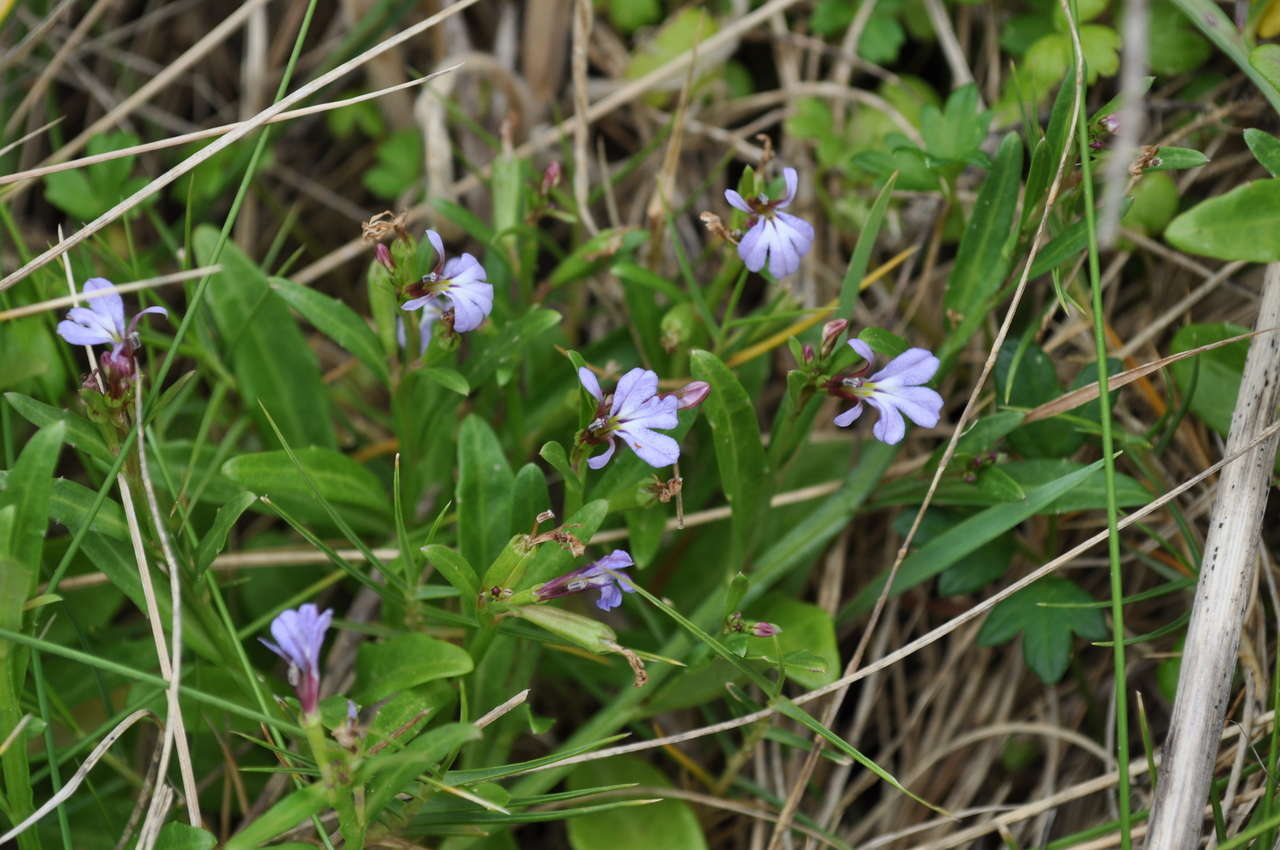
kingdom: Plantae
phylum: Tracheophyta
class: Magnoliopsida
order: Asterales
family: Campanulaceae
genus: Lobelia
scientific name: Lobelia anceps
